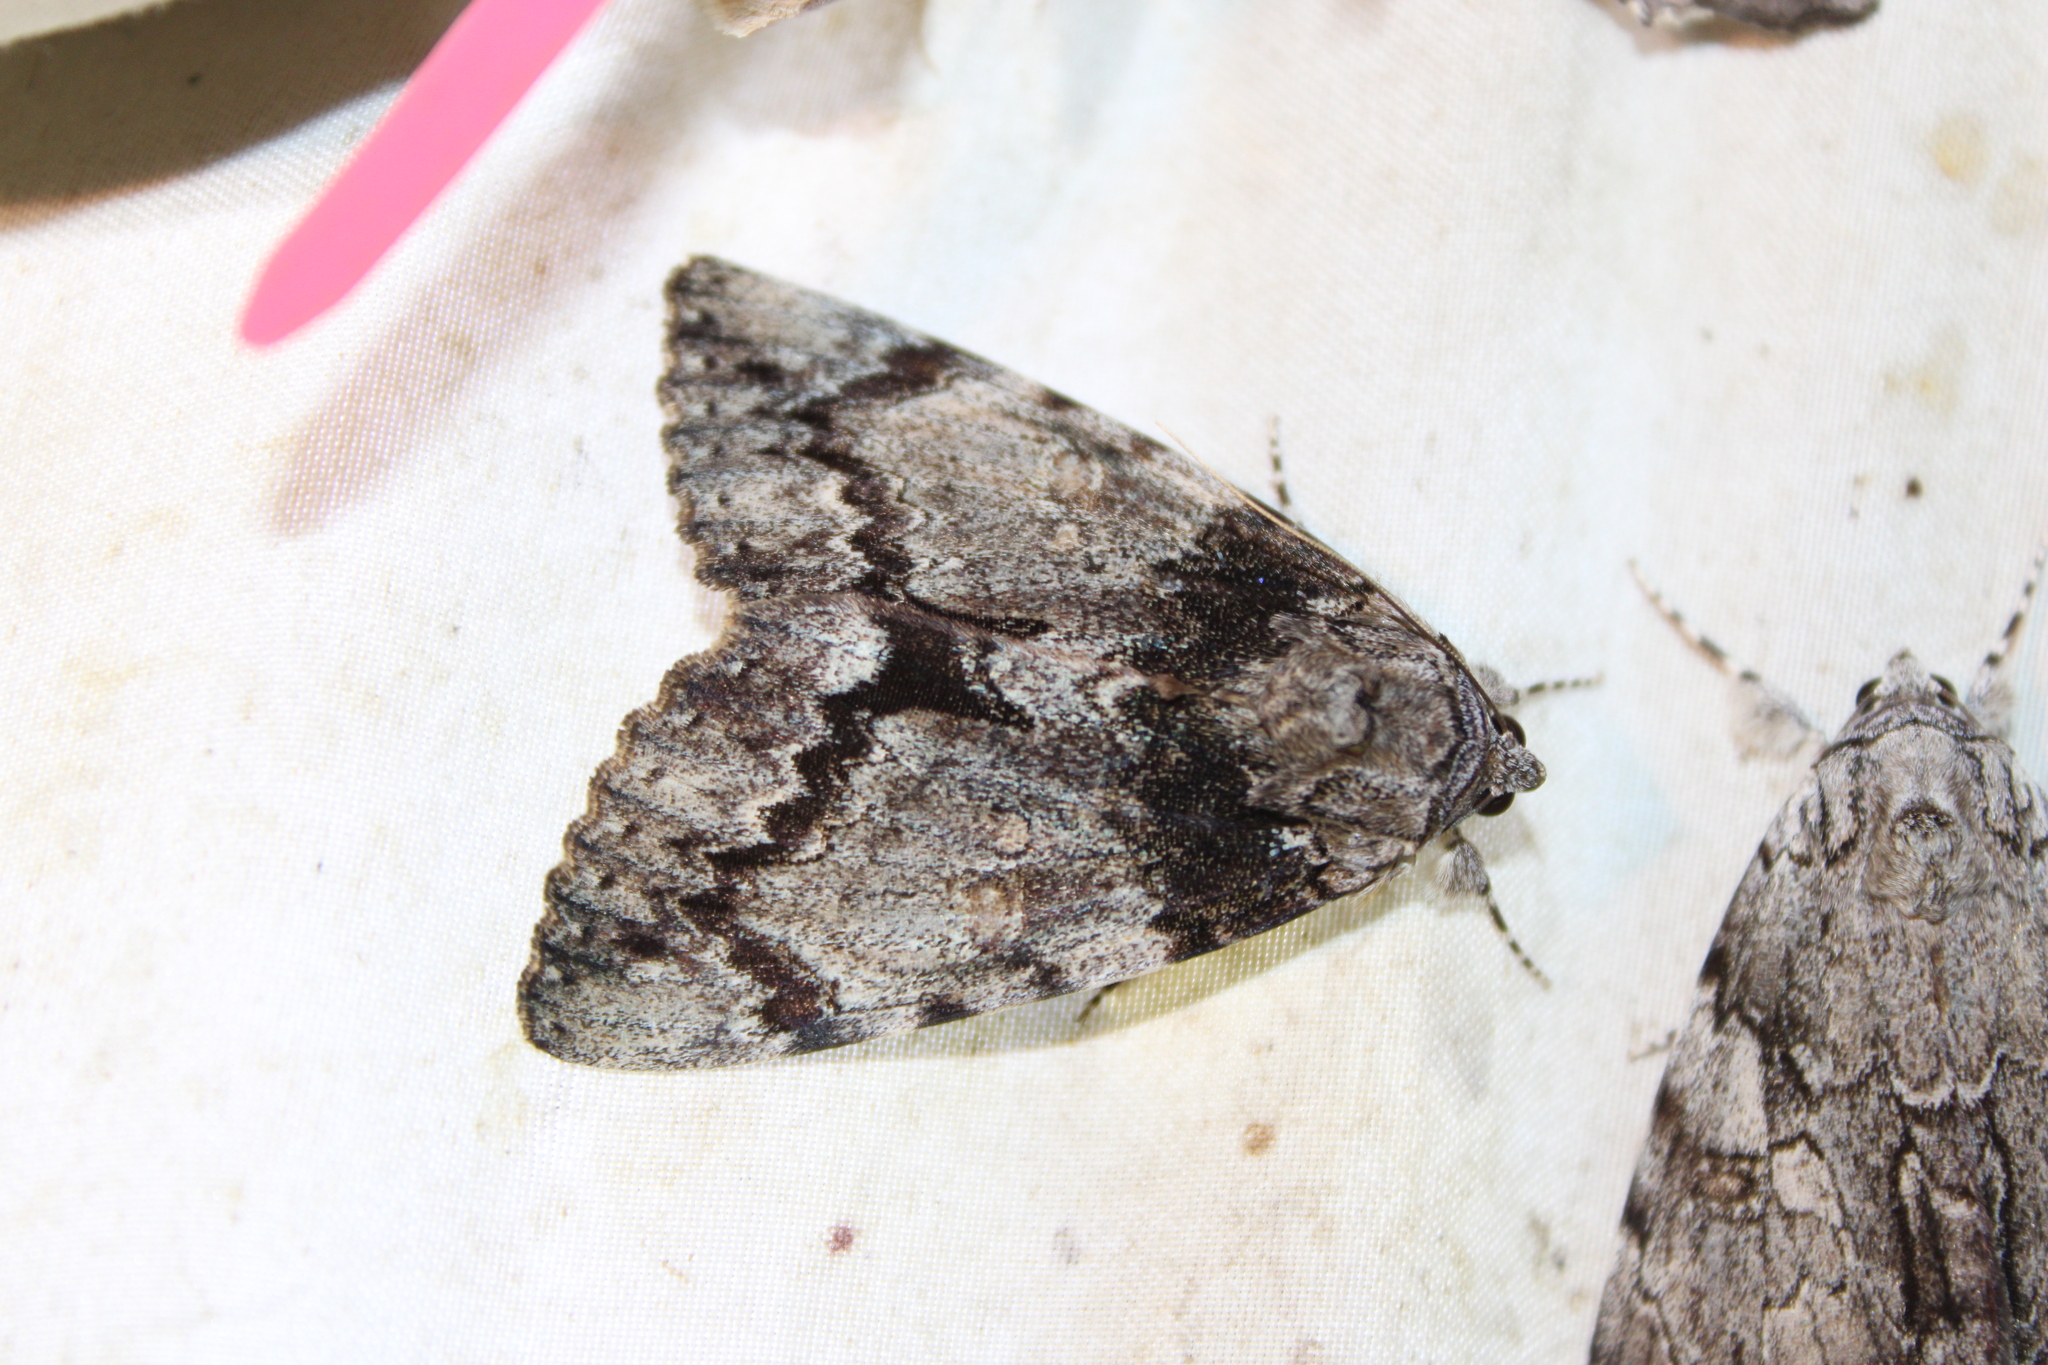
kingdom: Animalia
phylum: Arthropoda
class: Insecta
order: Lepidoptera
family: Erebidae
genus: Catocala
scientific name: Catocala palaeogama
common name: Oldwife underwing
